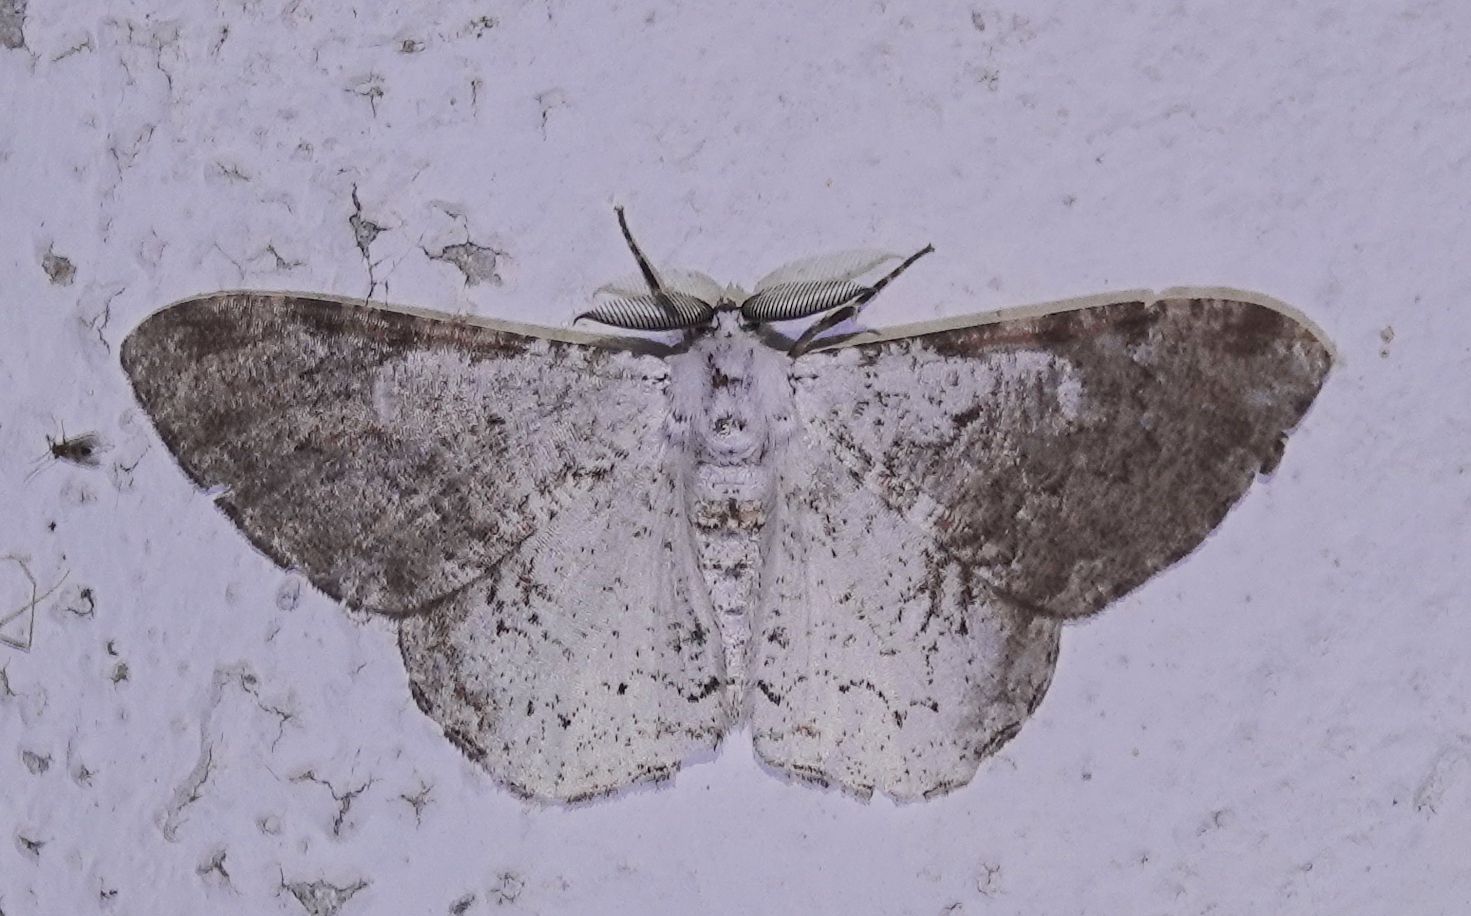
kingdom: Animalia
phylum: Arthropoda
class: Insecta
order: Lepidoptera
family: Geometridae
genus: Thyrinteina
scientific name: Thyrinteina arnobia
